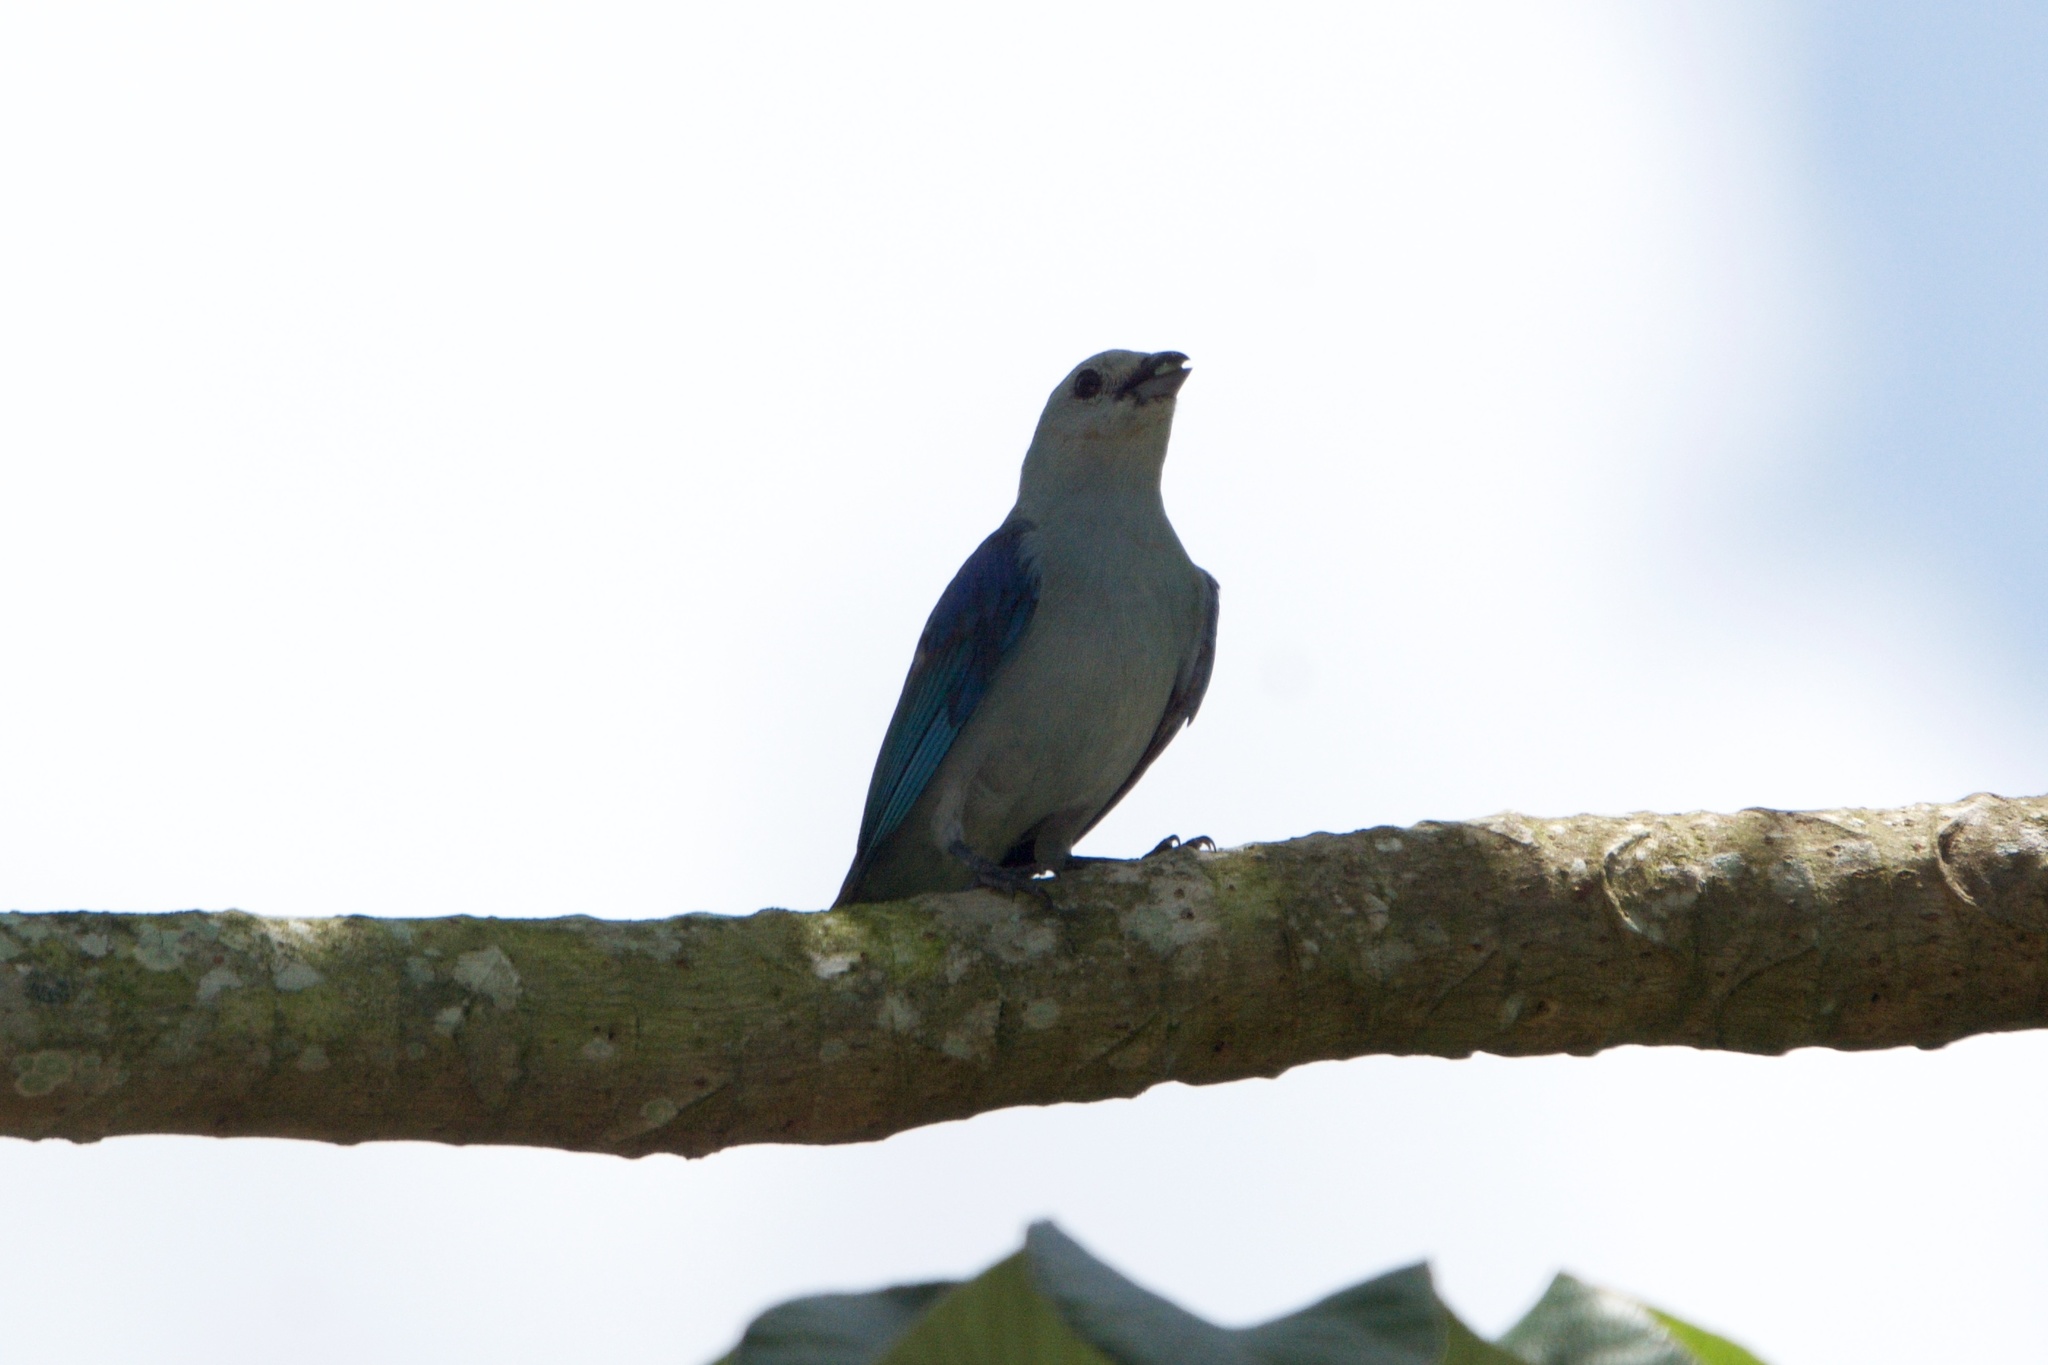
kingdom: Animalia
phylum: Chordata
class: Aves
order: Passeriformes
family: Thraupidae
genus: Thraupis
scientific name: Thraupis episcopus
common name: Blue-grey tanager
